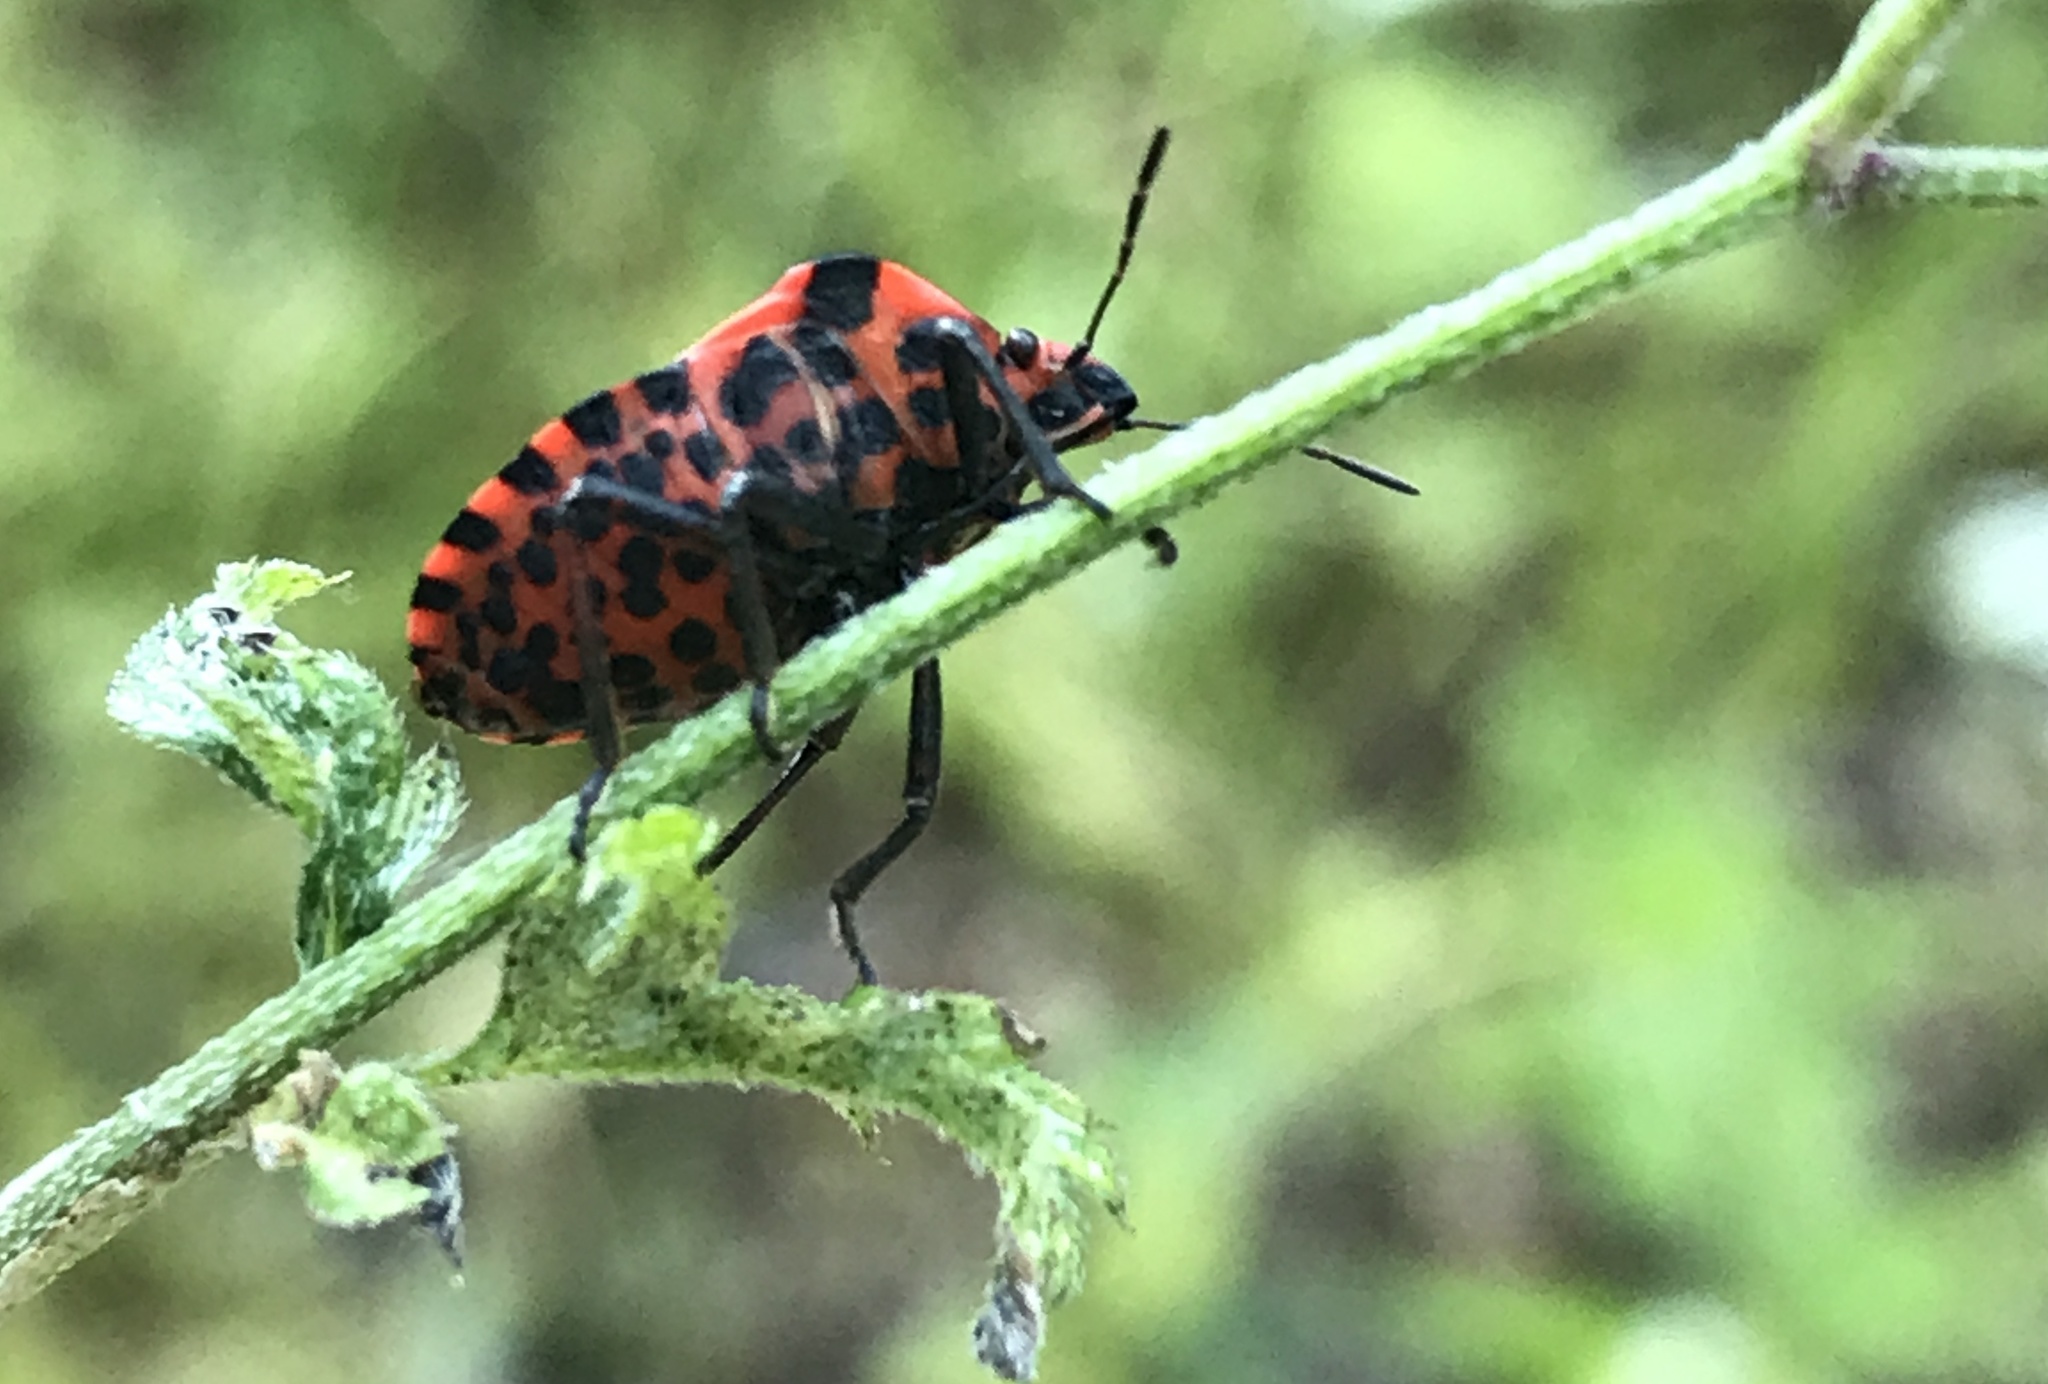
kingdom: Animalia
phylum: Arthropoda
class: Insecta
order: Hemiptera
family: Pentatomidae
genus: Graphosoma
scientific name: Graphosoma italicum
